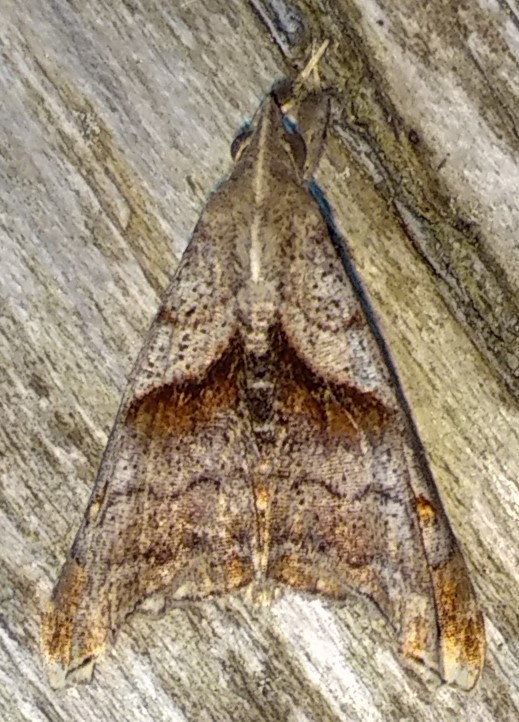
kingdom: Animalia
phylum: Arthropoda
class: Insecta
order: Lepidoptera
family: Erebidae
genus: Palthis
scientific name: Palthis angulalis
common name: Dark-spotted palthis moth
